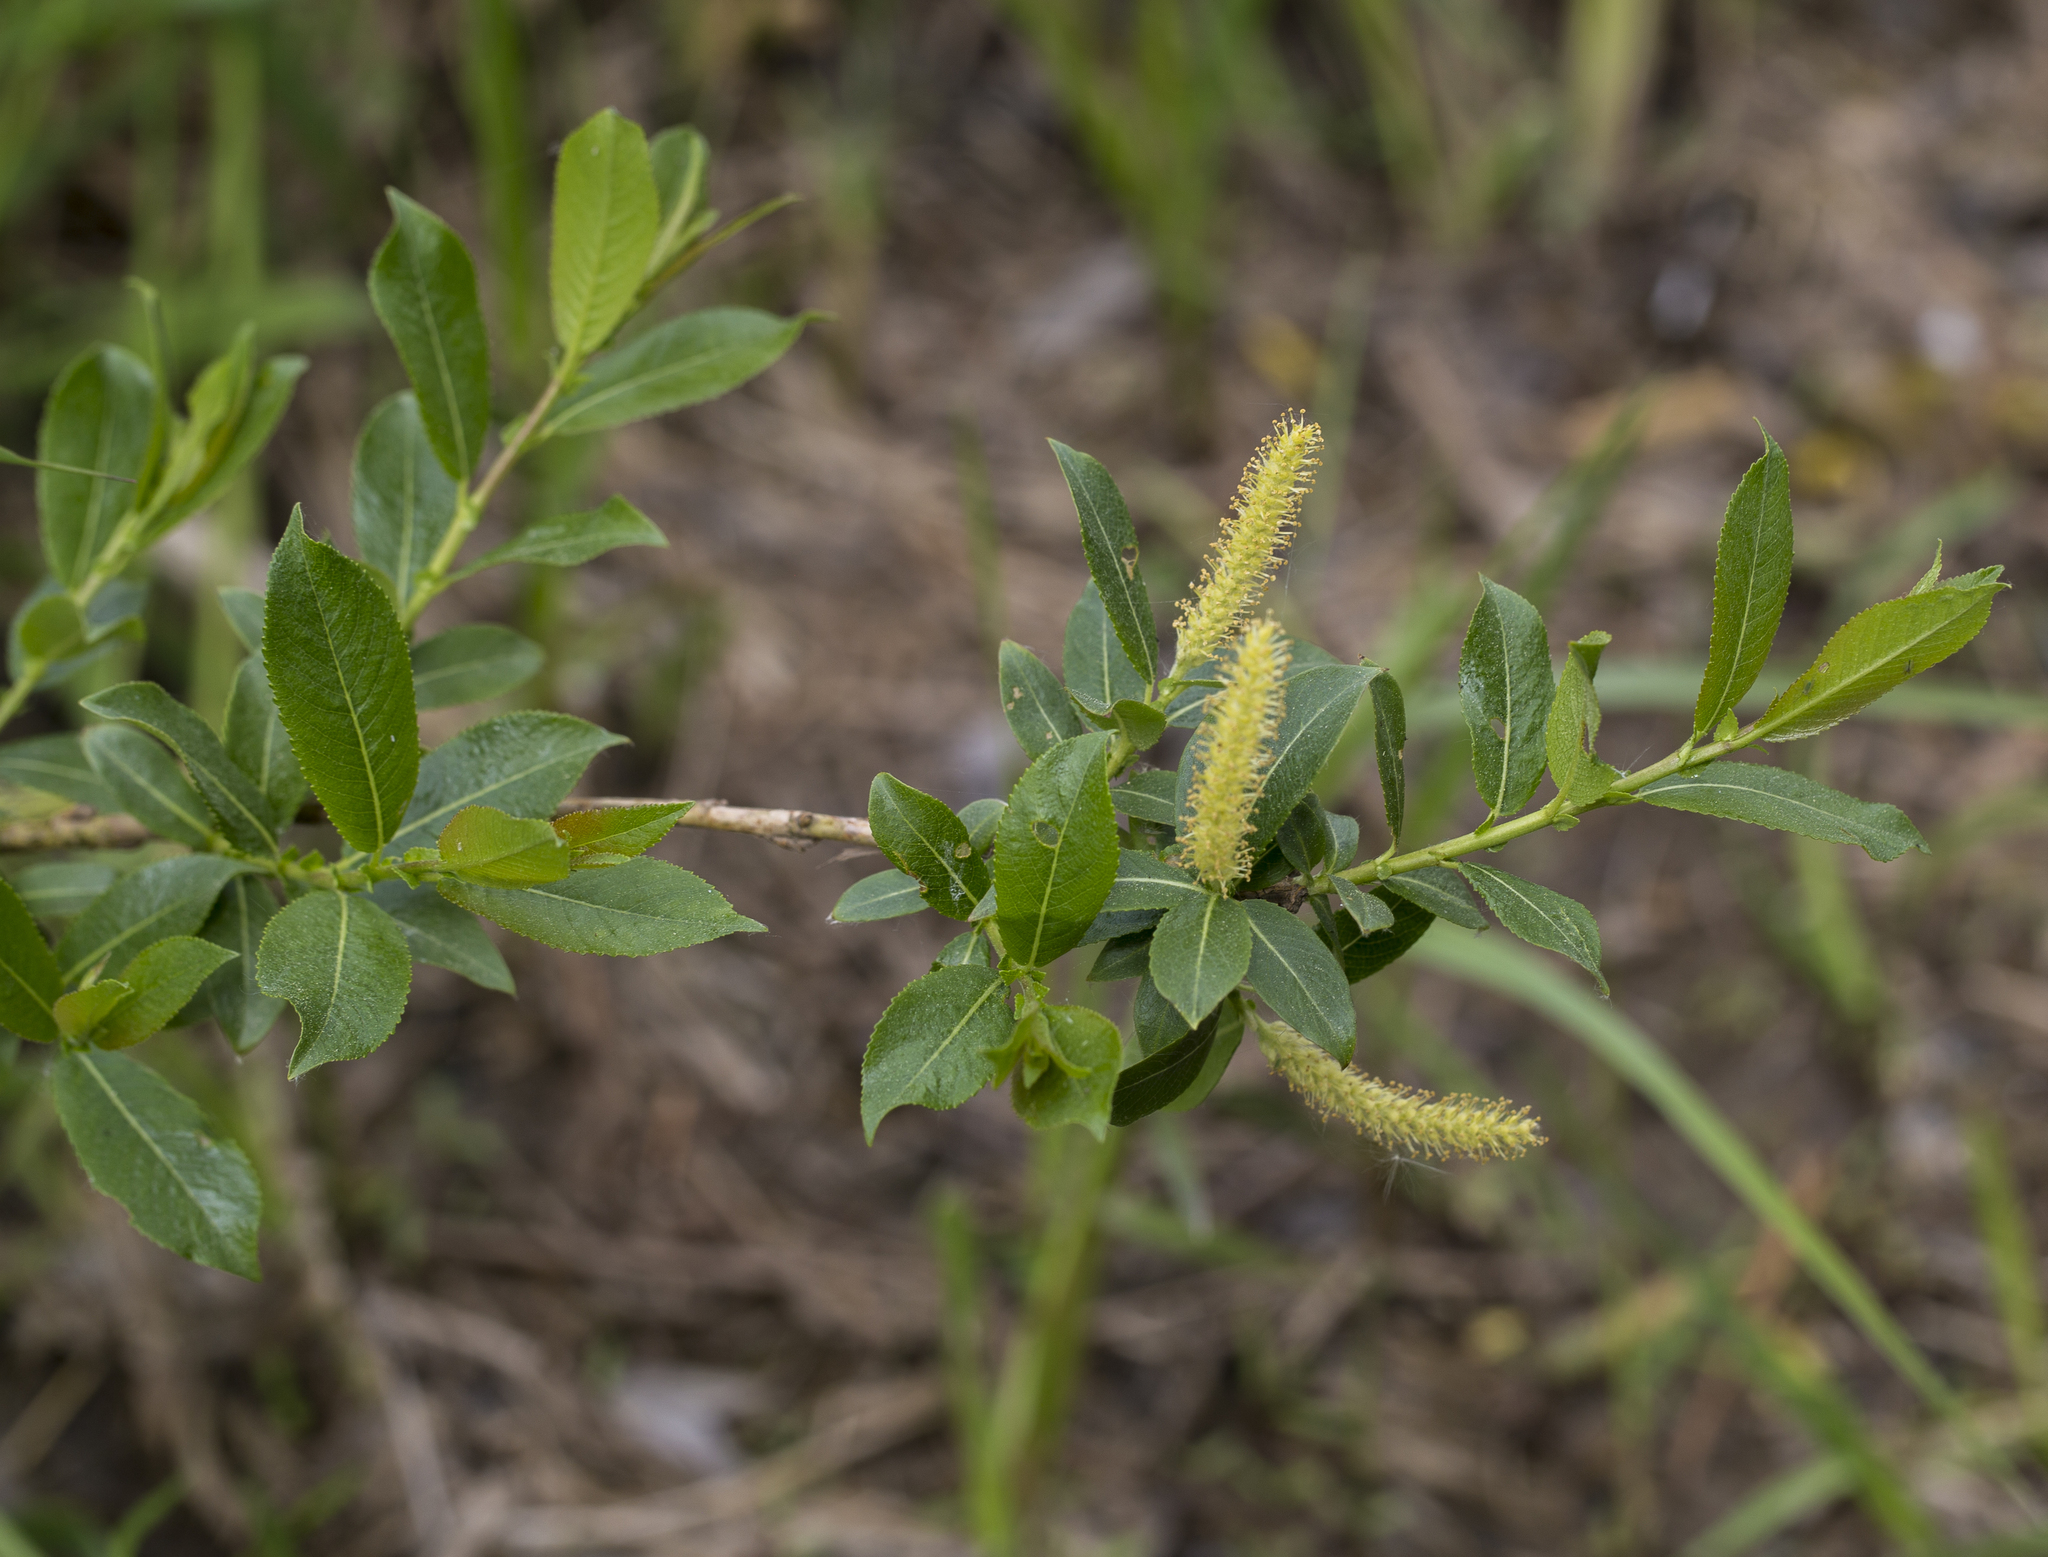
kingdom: Plantae
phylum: Tracheophyta
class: Magnoliopsida
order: Malpighiales
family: Salicaceae
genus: Salix
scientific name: Salix triandra
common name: Almond willow
